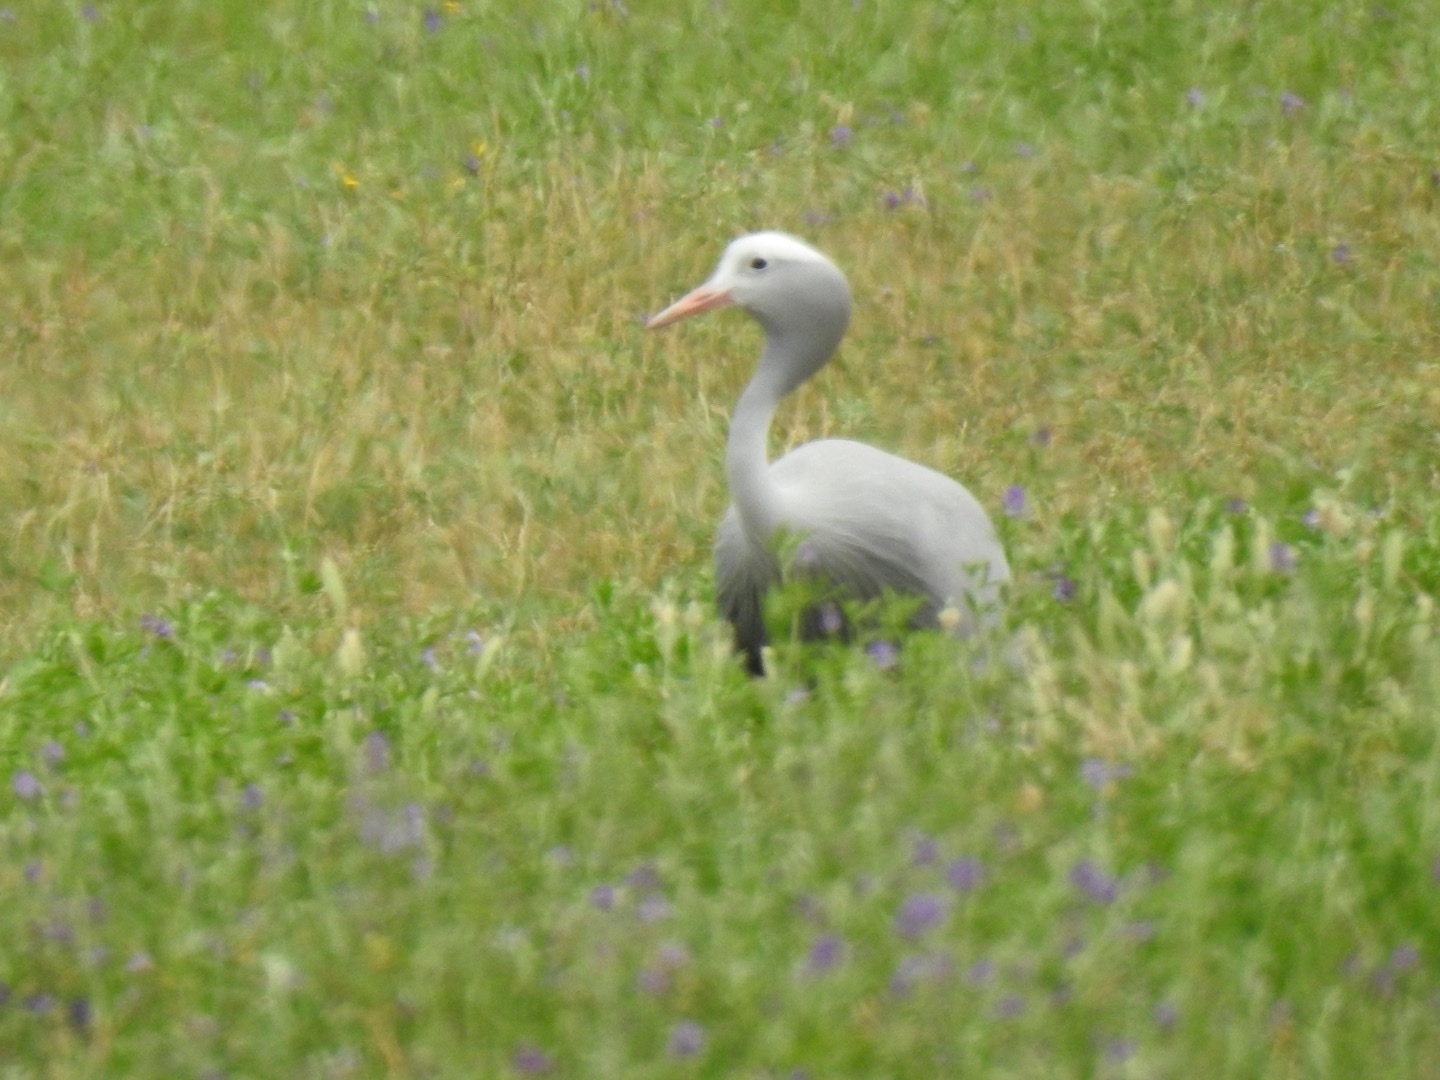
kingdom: Animalia
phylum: Chordata
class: Aves
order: Gruiformes
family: Gruidae
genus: Anthropoides
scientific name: Anthropoides paradiseus
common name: Blue crane
